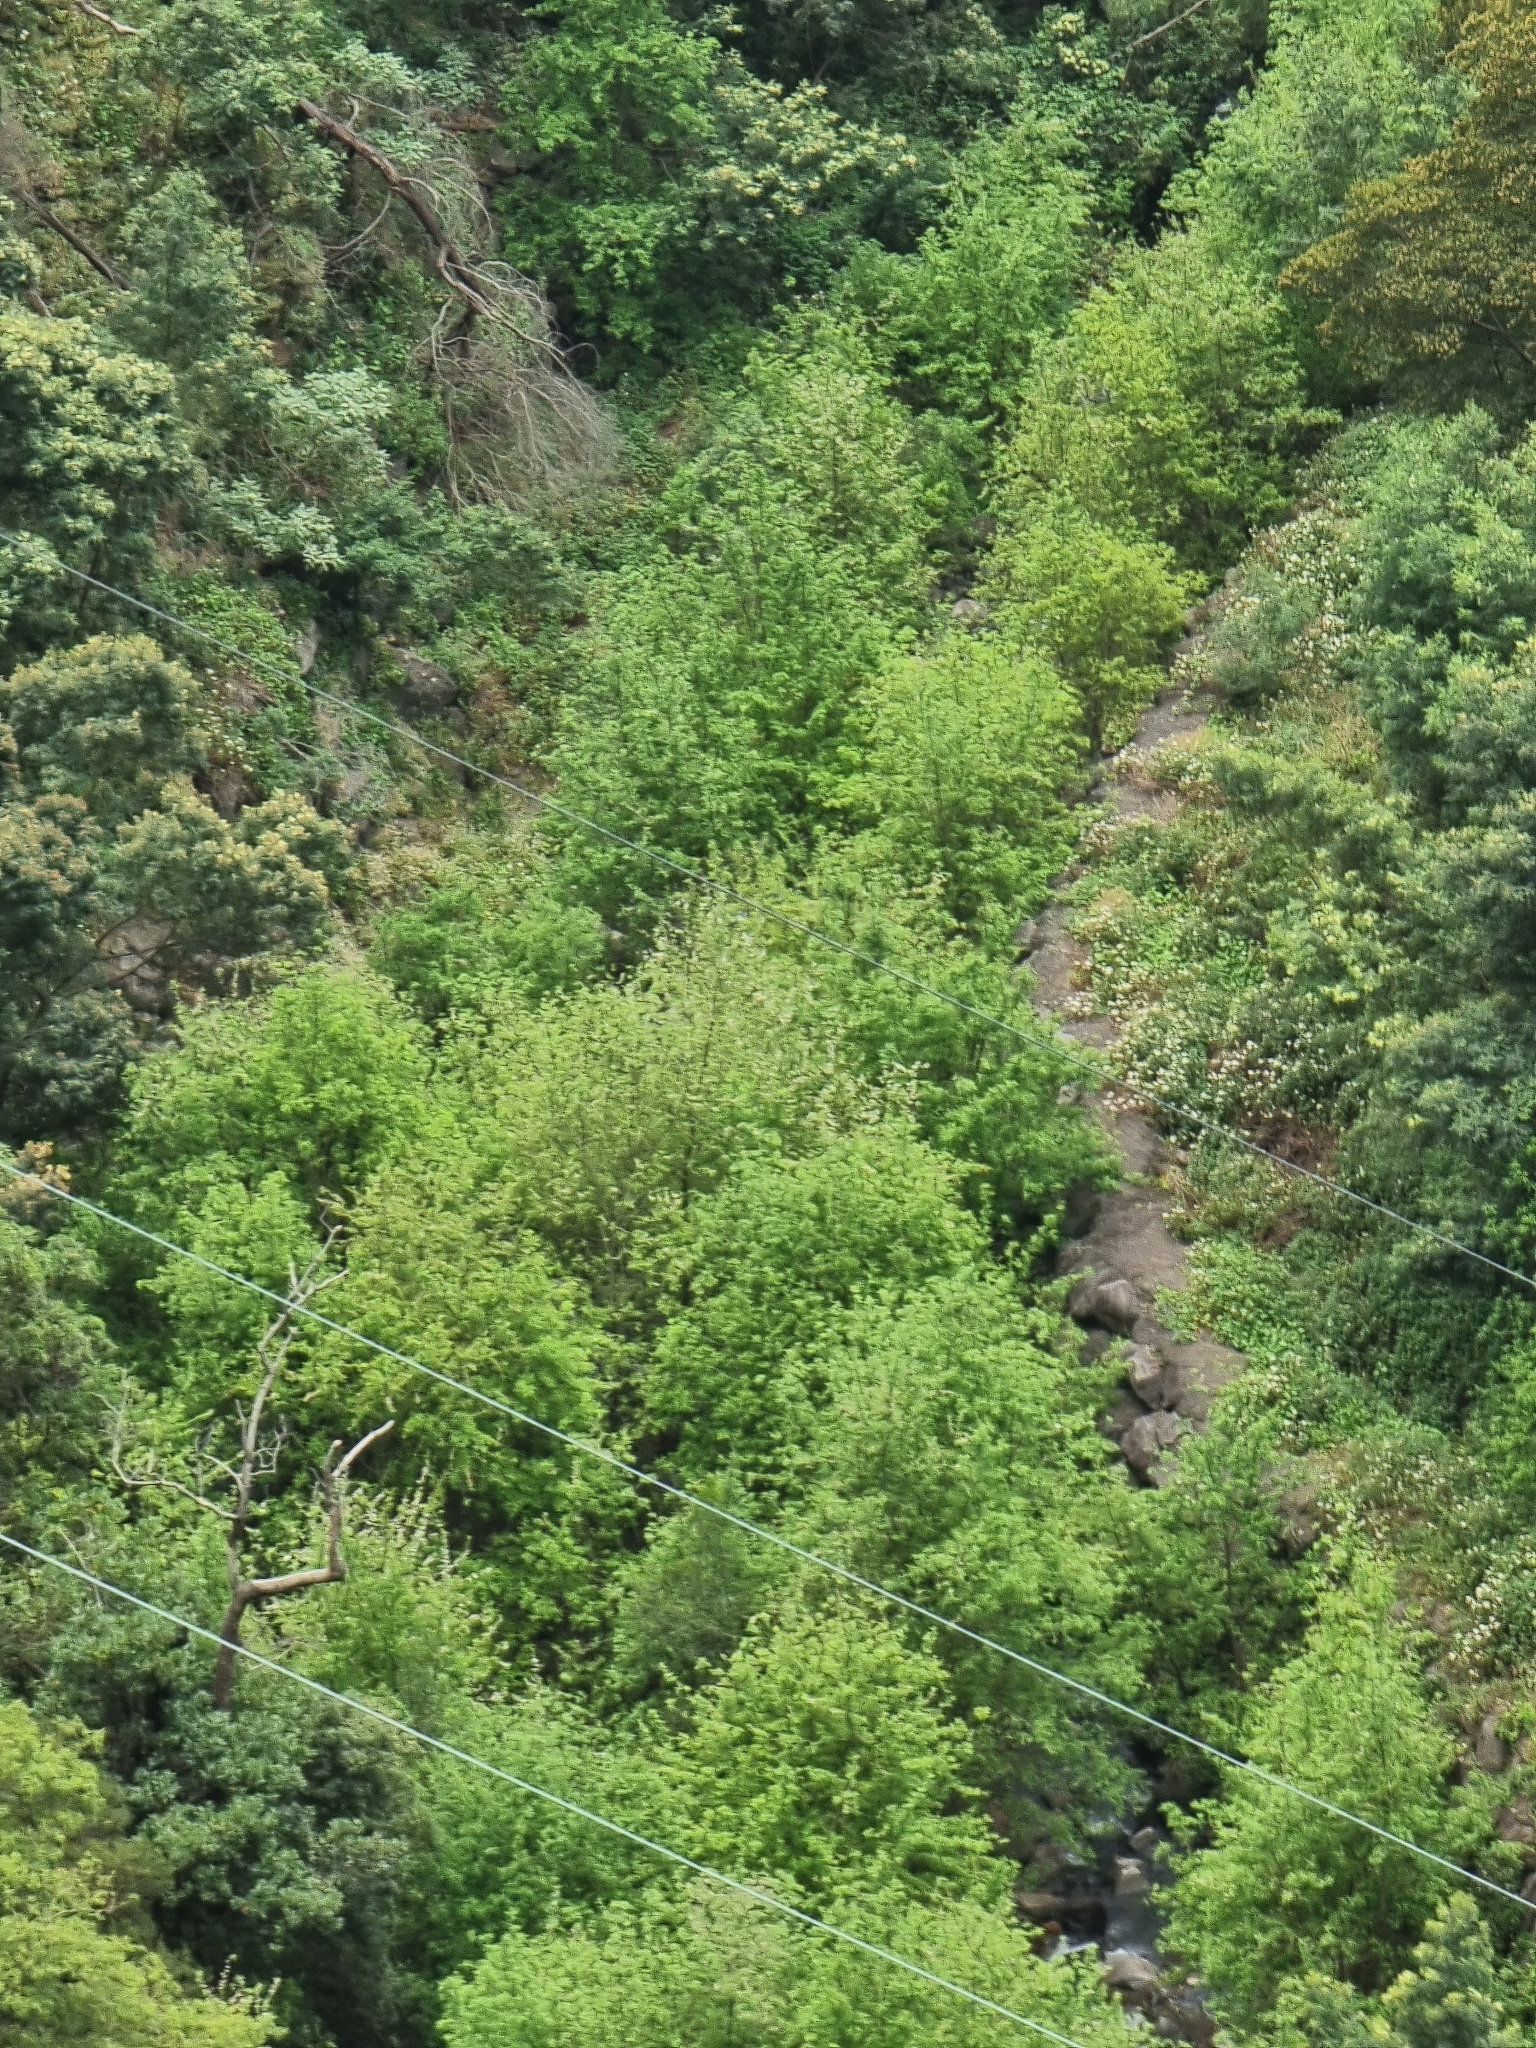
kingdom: Plantae
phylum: Tracheophyta
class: Magnoliopsida
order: Malpighiales
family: Salicaceae
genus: Salix
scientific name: Salix canariensis
